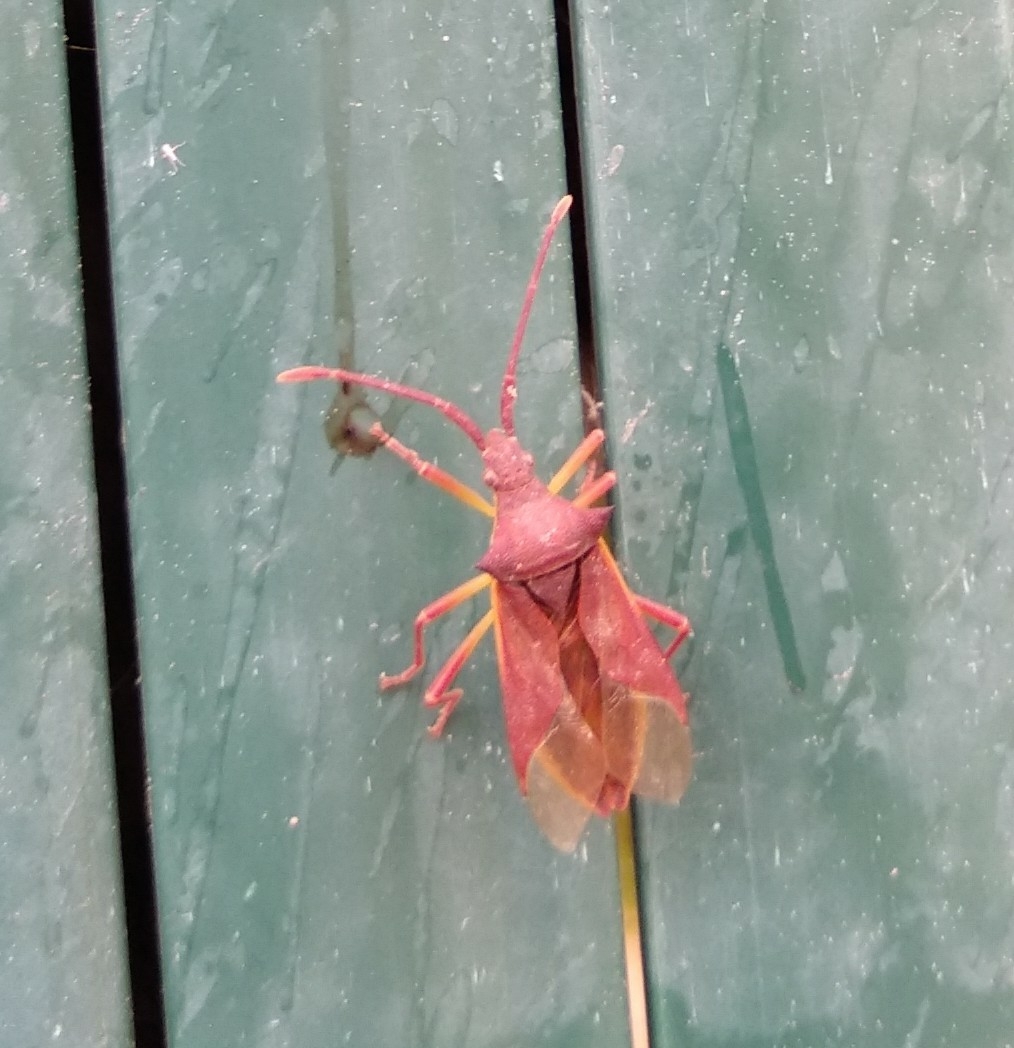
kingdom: Animalia
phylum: Arthropoda
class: Insecta
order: Hemiptera
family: Coreidae
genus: Gonocerus
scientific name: Gonocerus insidiator
